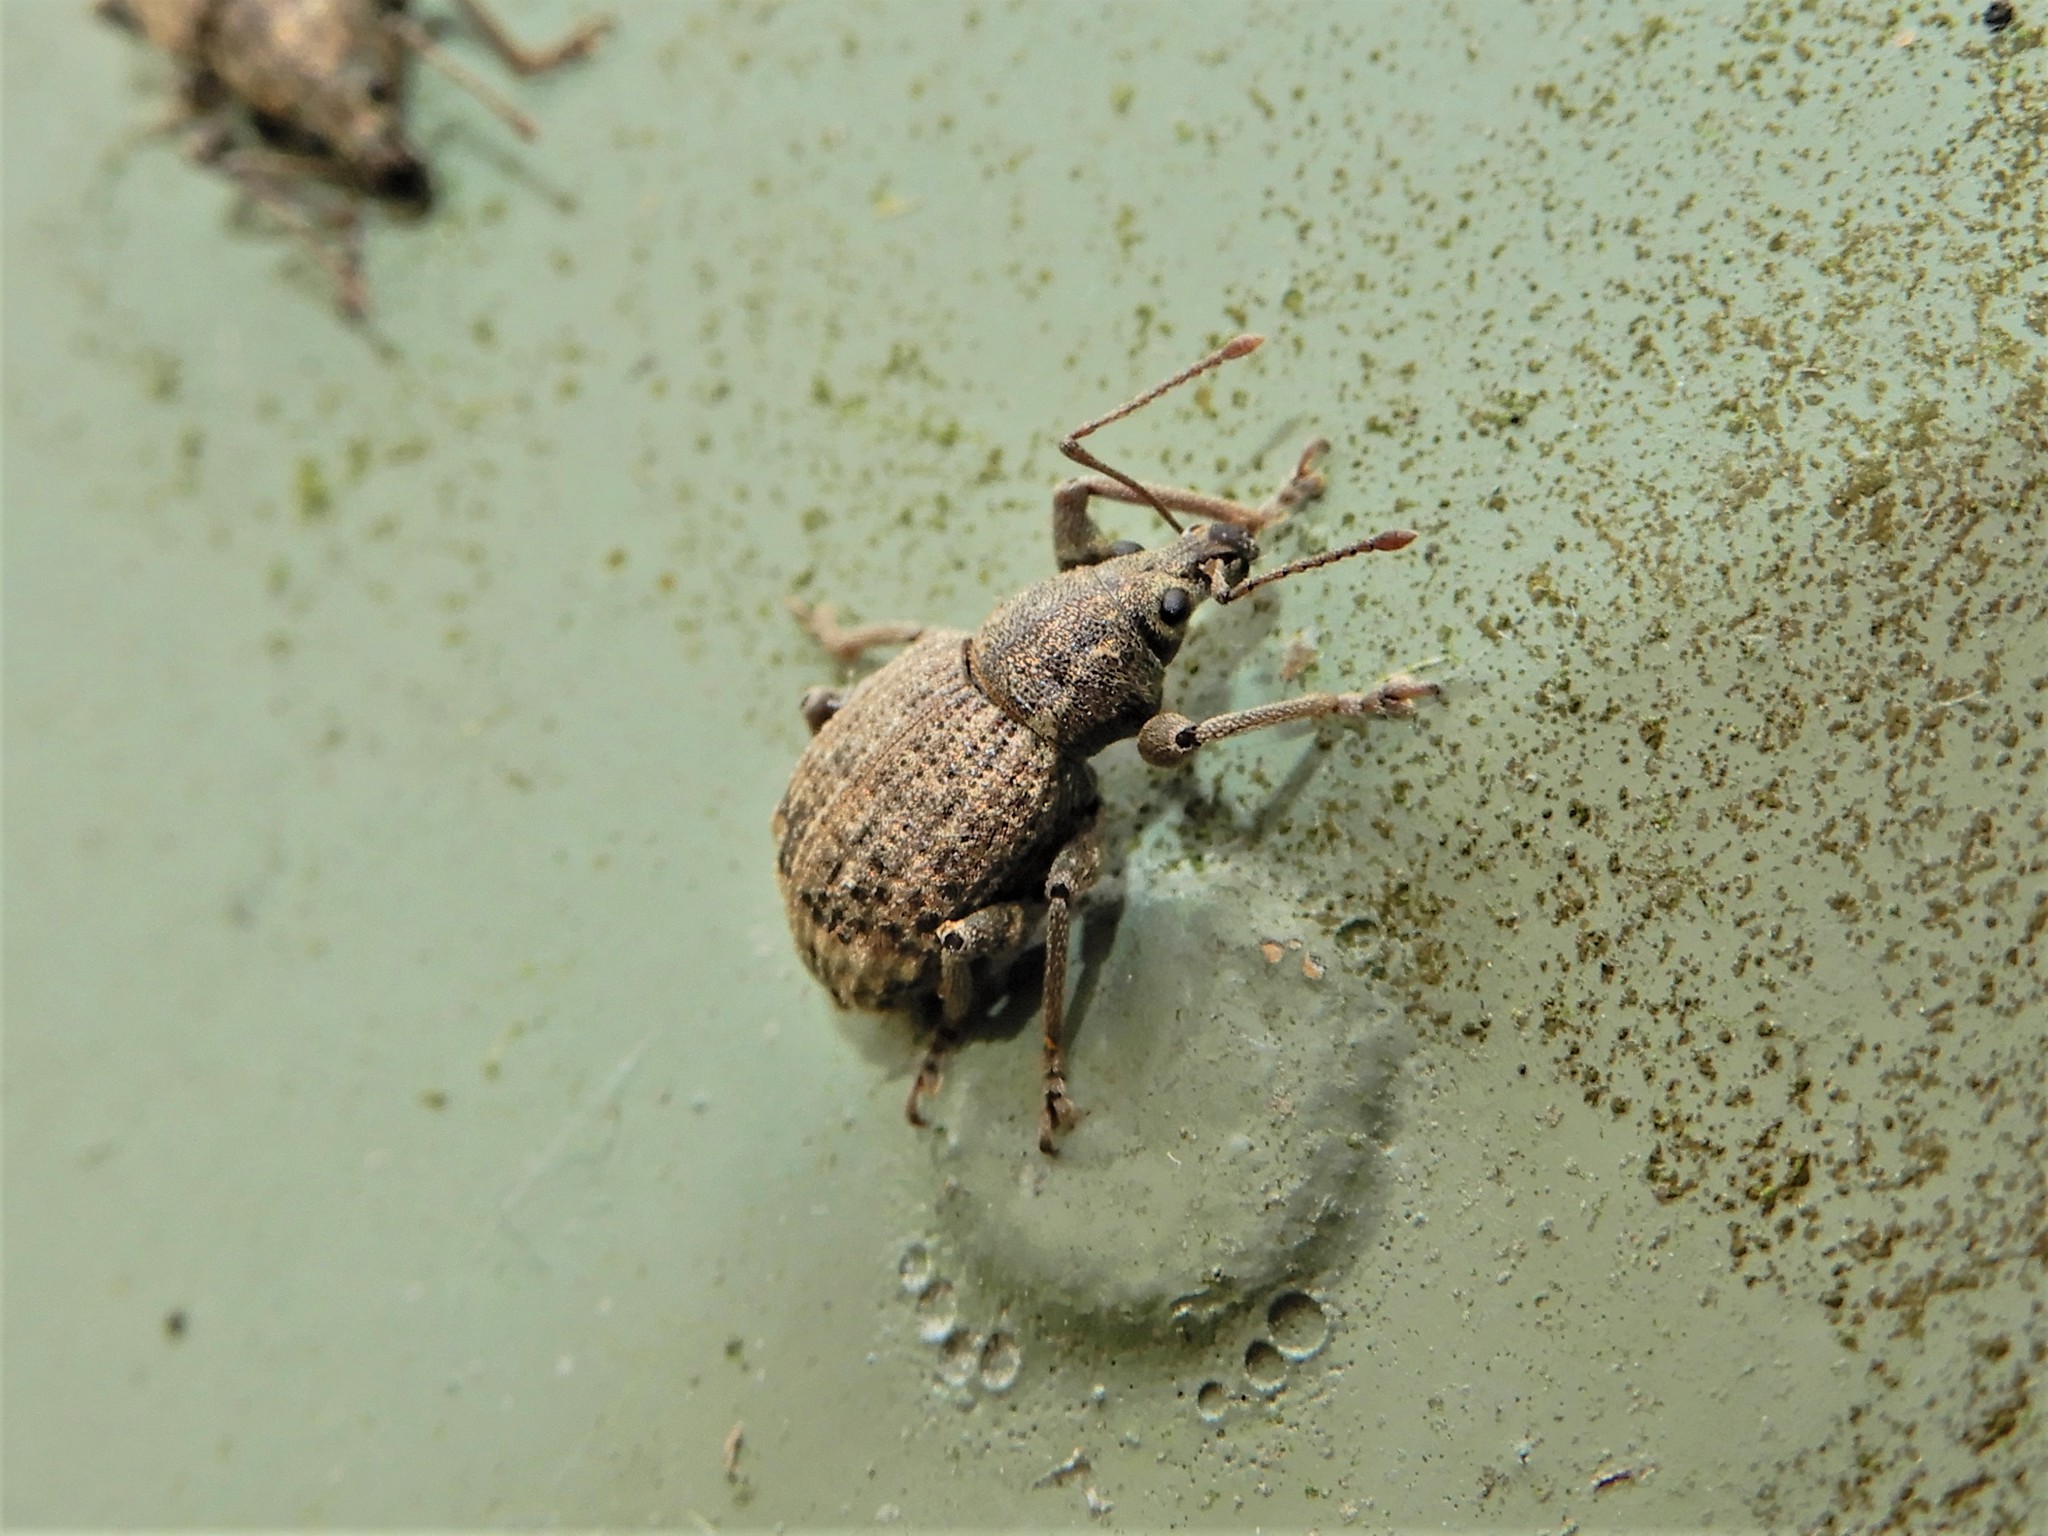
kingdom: Animalia
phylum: Arthropoda
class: Insecta
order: Coleoptera
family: Curculionidae
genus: Phlyctinus
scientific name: Phlyctinus callosus
